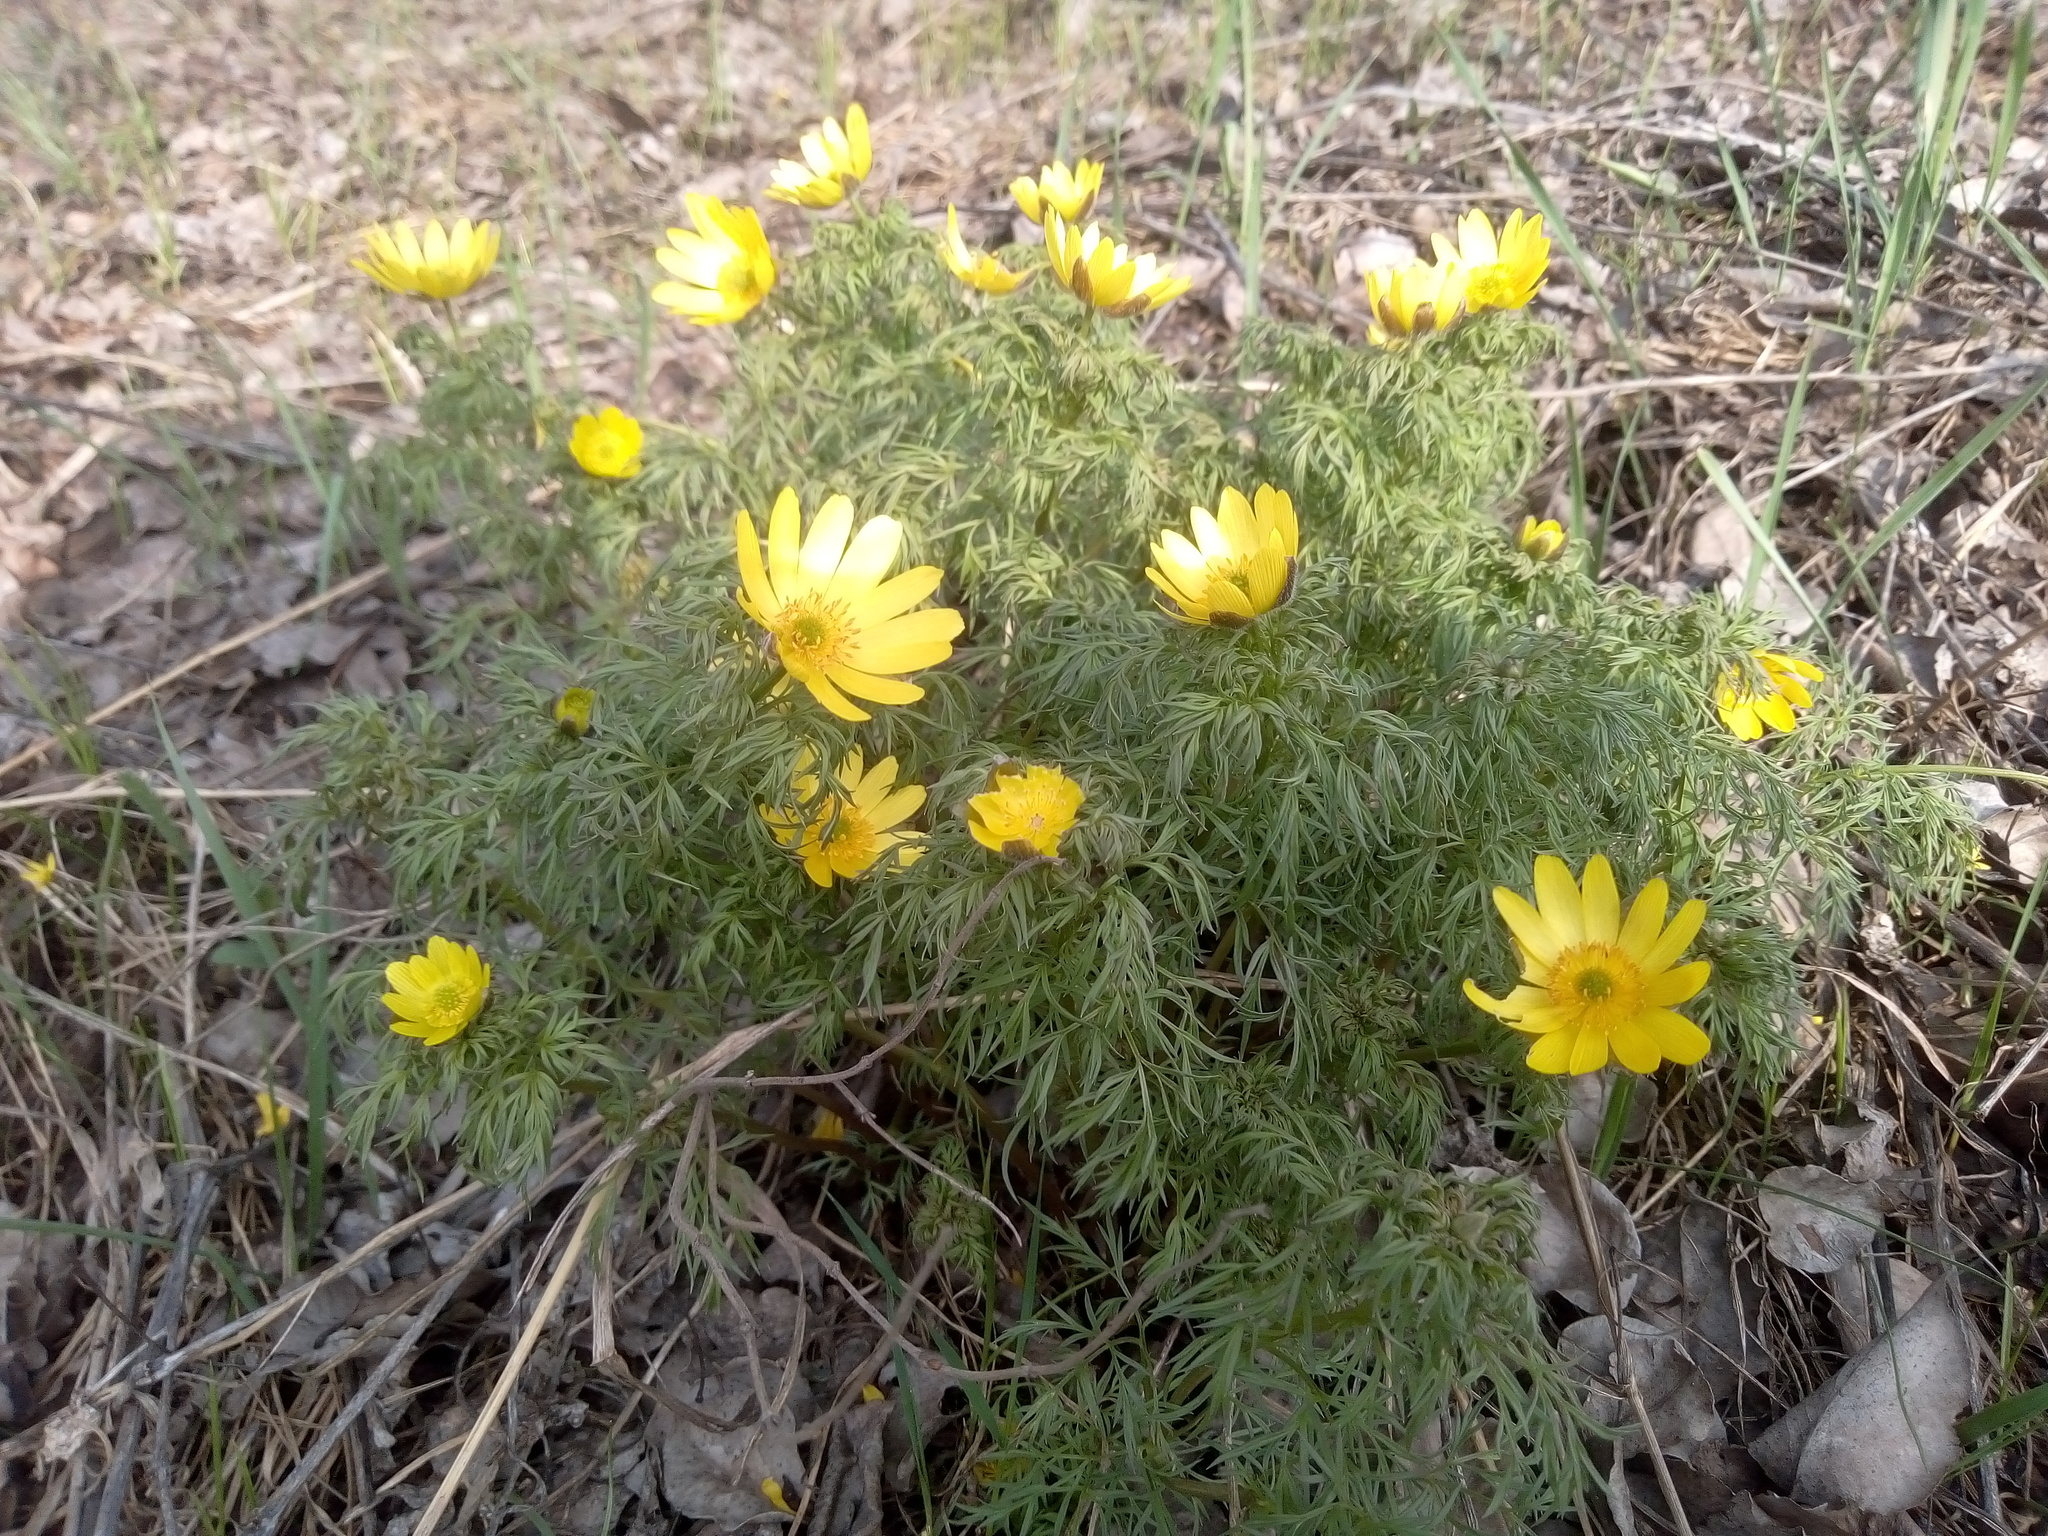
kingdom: Plantae
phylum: Tracheophyta
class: Magnoliopsida
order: Ranunculales
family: Ranunculaceae
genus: Adonis
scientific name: Adonis volgensis
